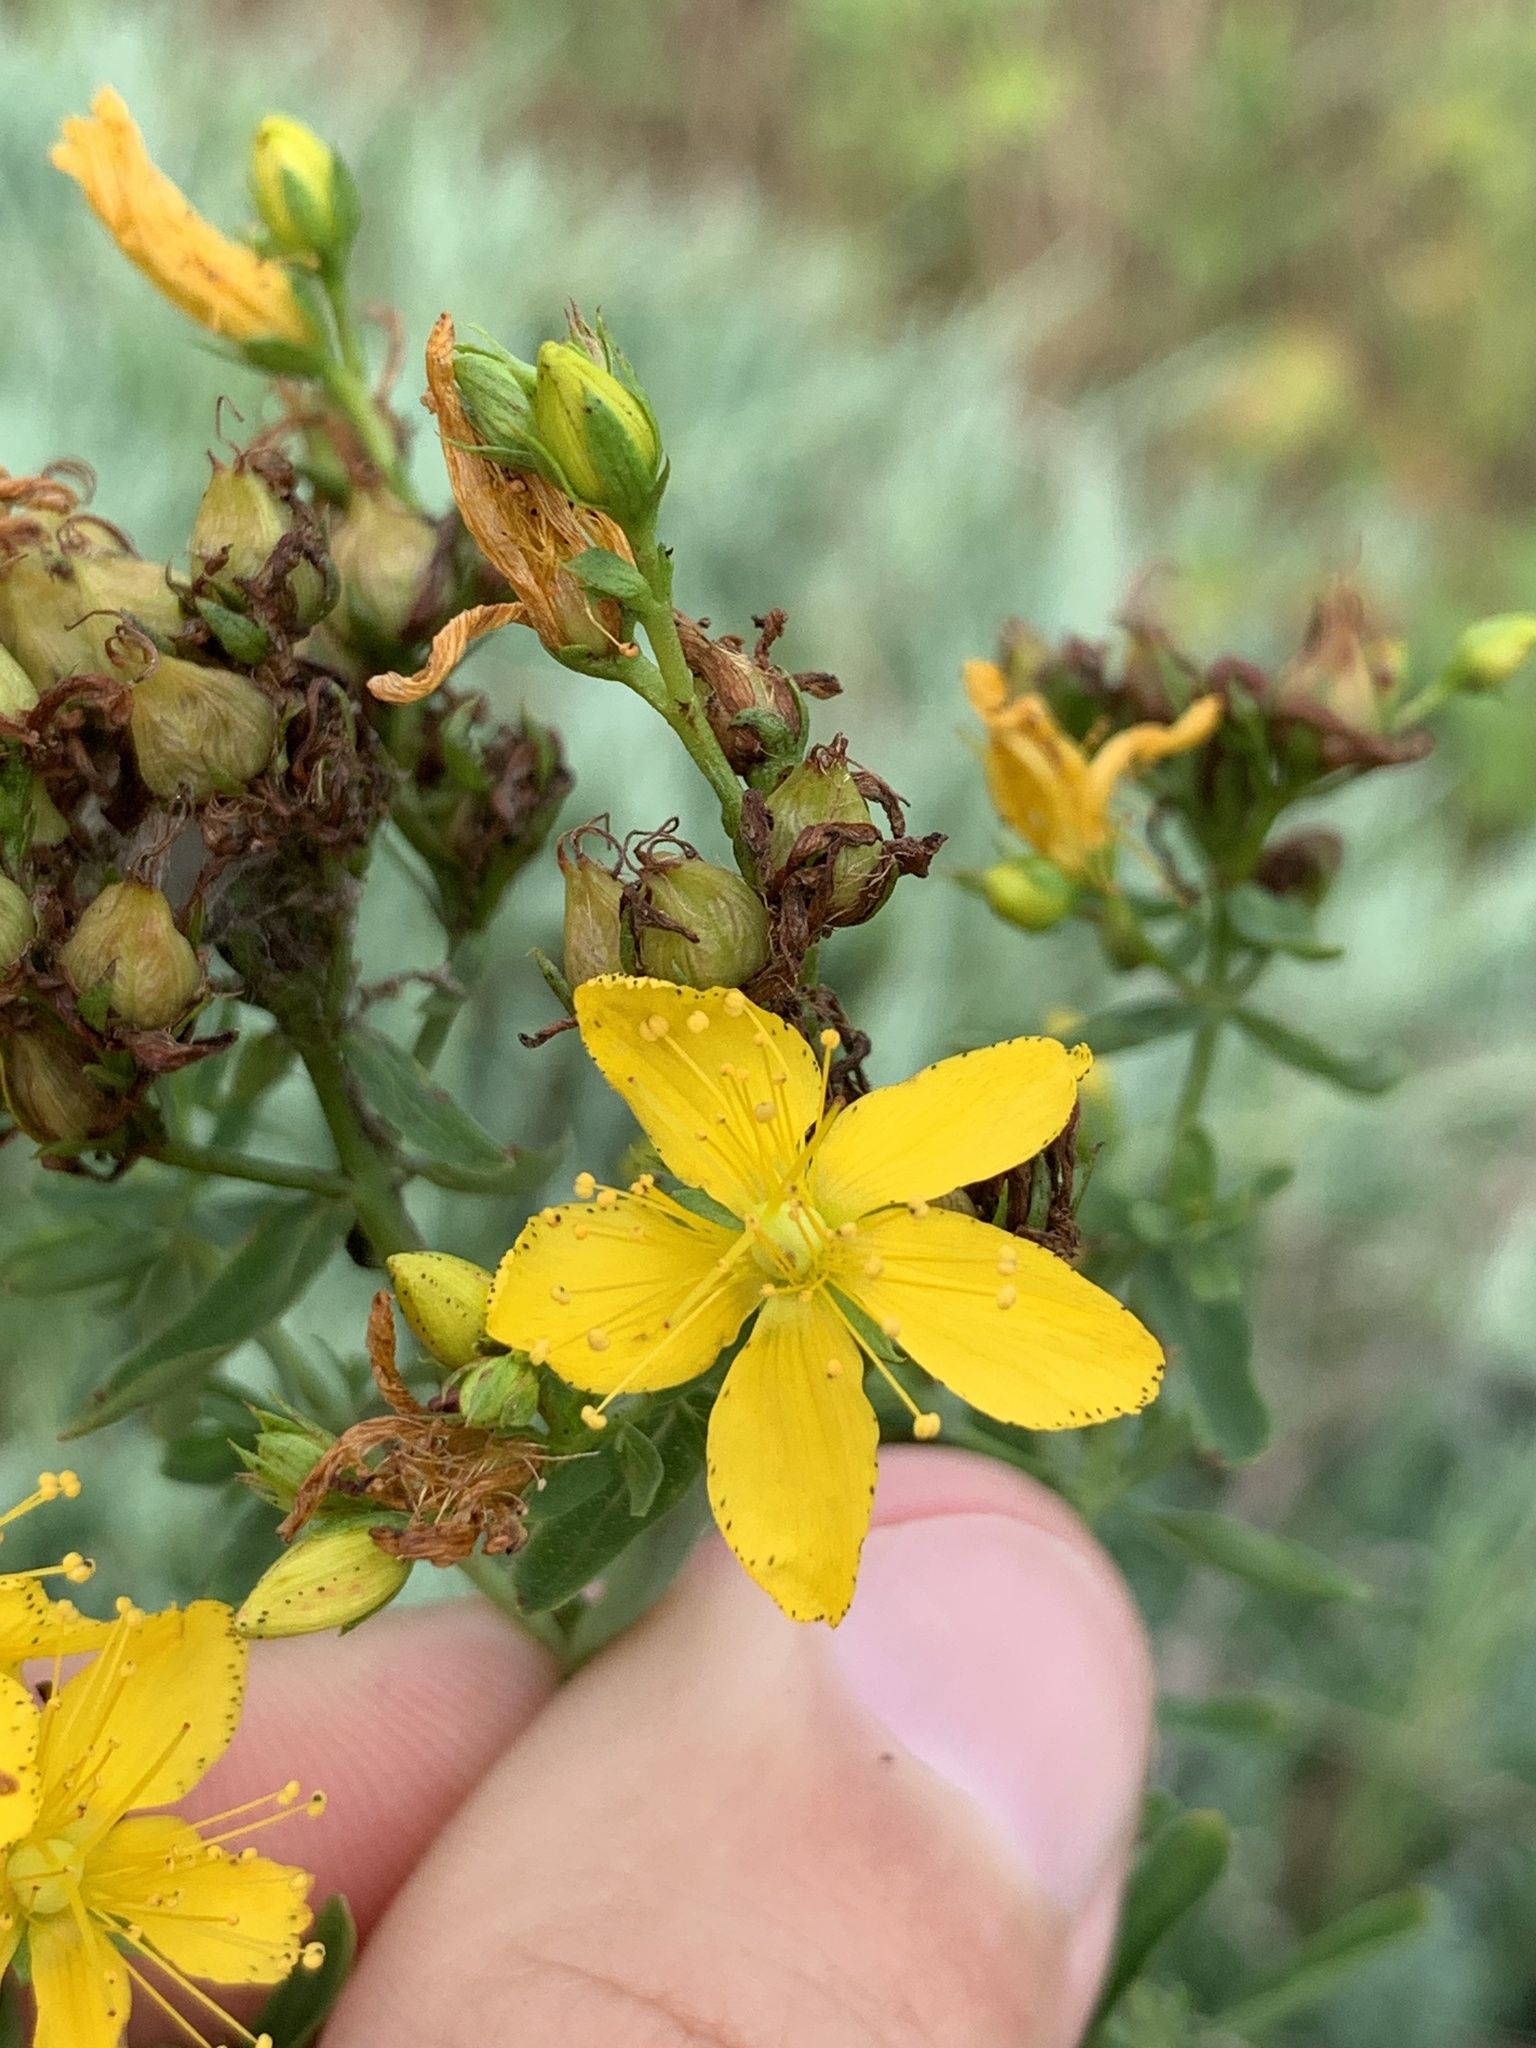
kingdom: Plantae
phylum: Tracheophyta
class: Magnoliopsida
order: Malpighiales
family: Hypericaceae
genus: Hypericum
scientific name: Hypericum perforatum
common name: Common st. johnswort
